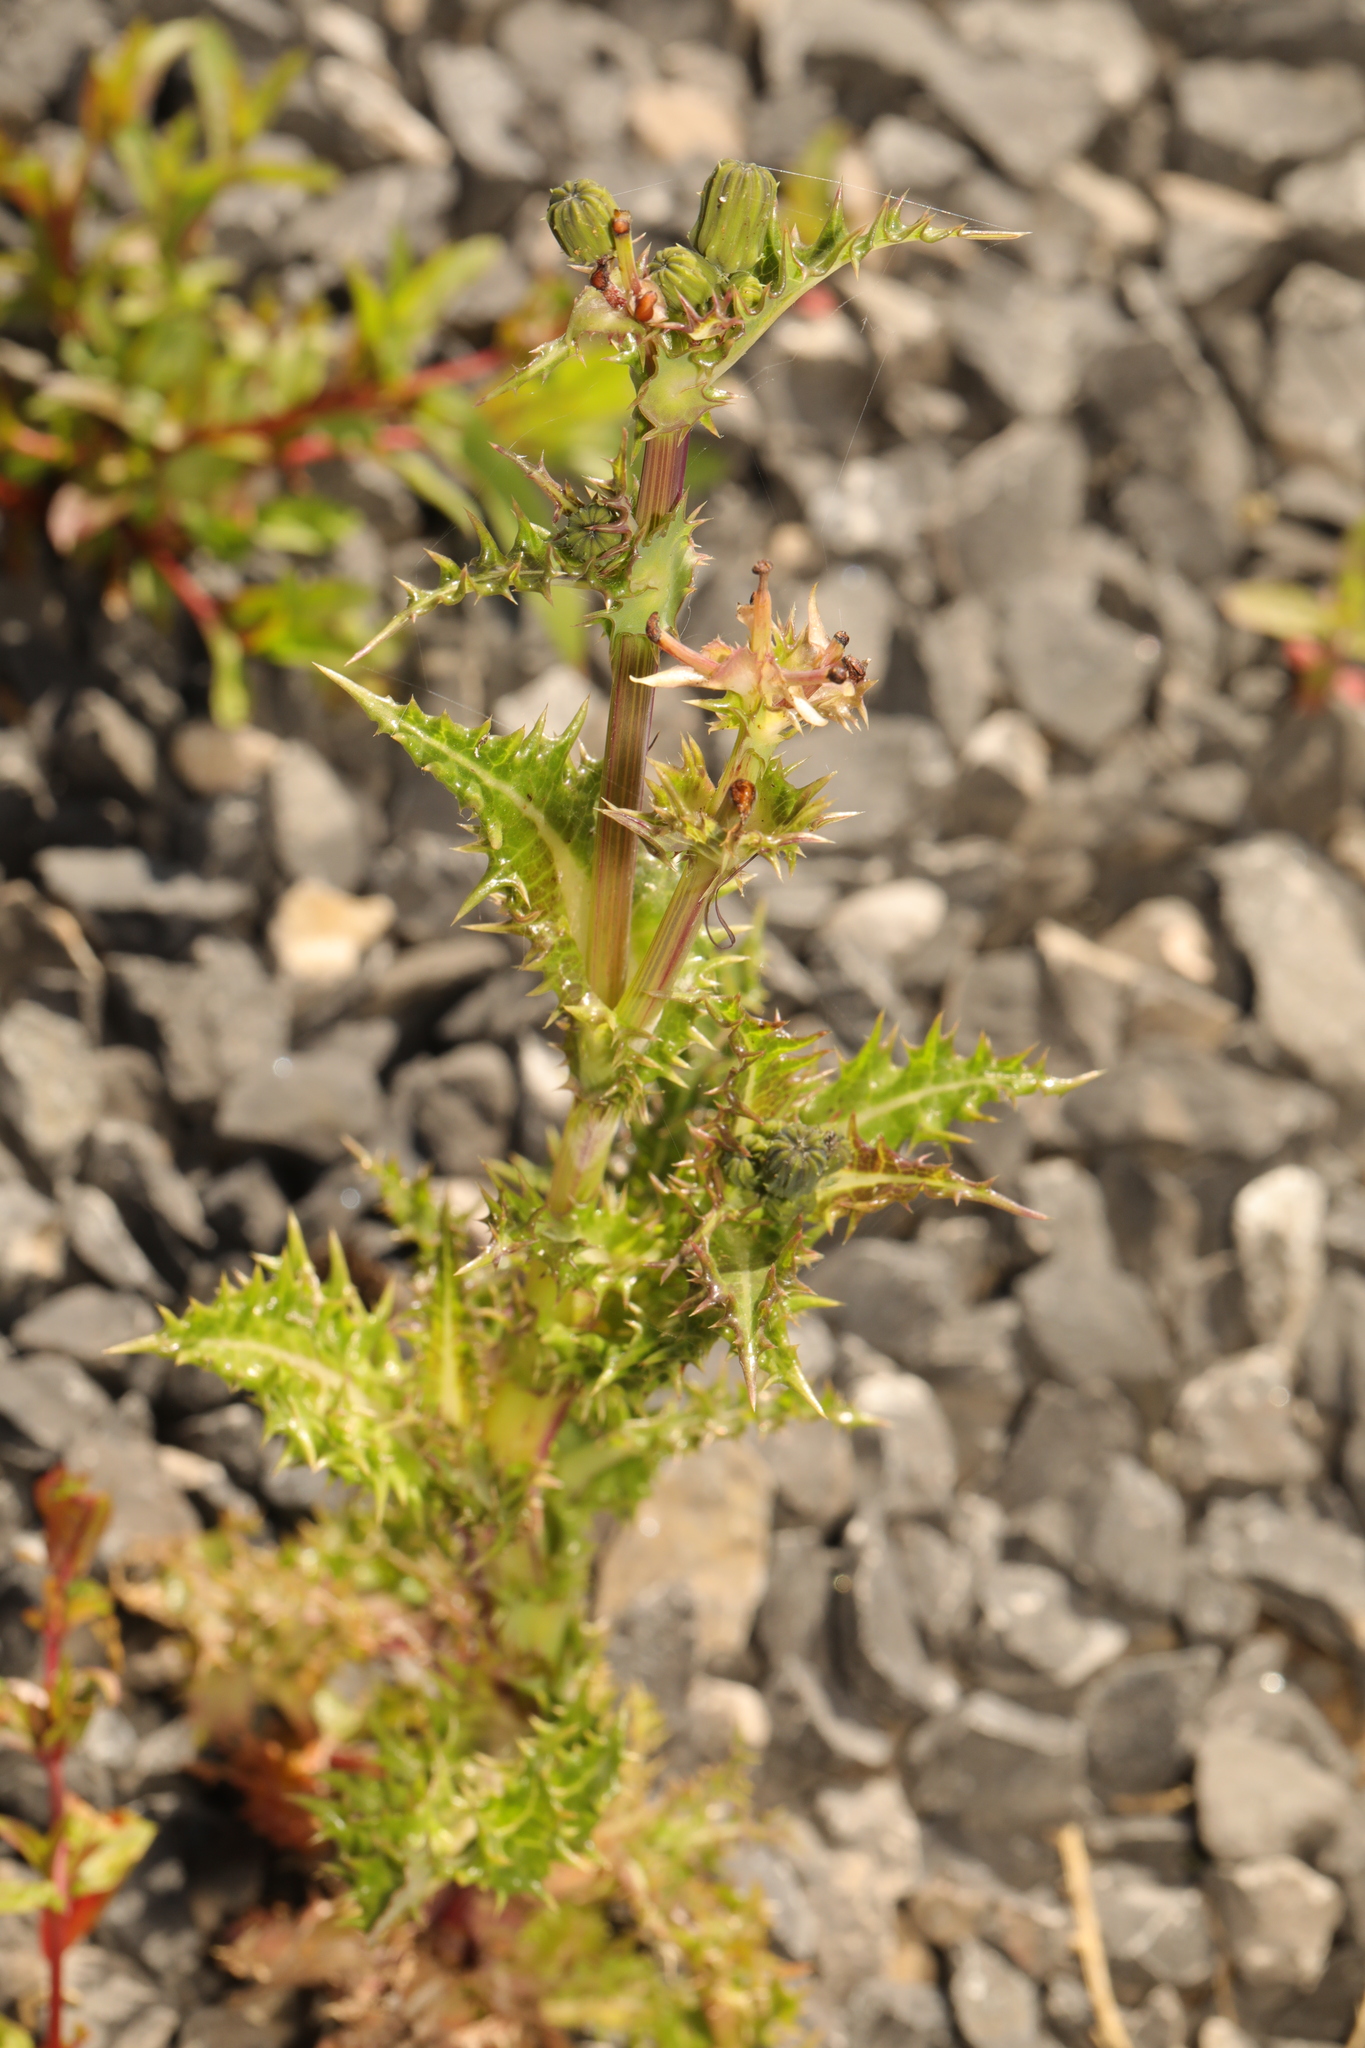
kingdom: Plantae
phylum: Tracheophyta
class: Magnoliopsida
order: Asterales
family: Asteraceae
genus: Sonchus
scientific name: Sonchus asper
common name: Prickly sow-thistle
